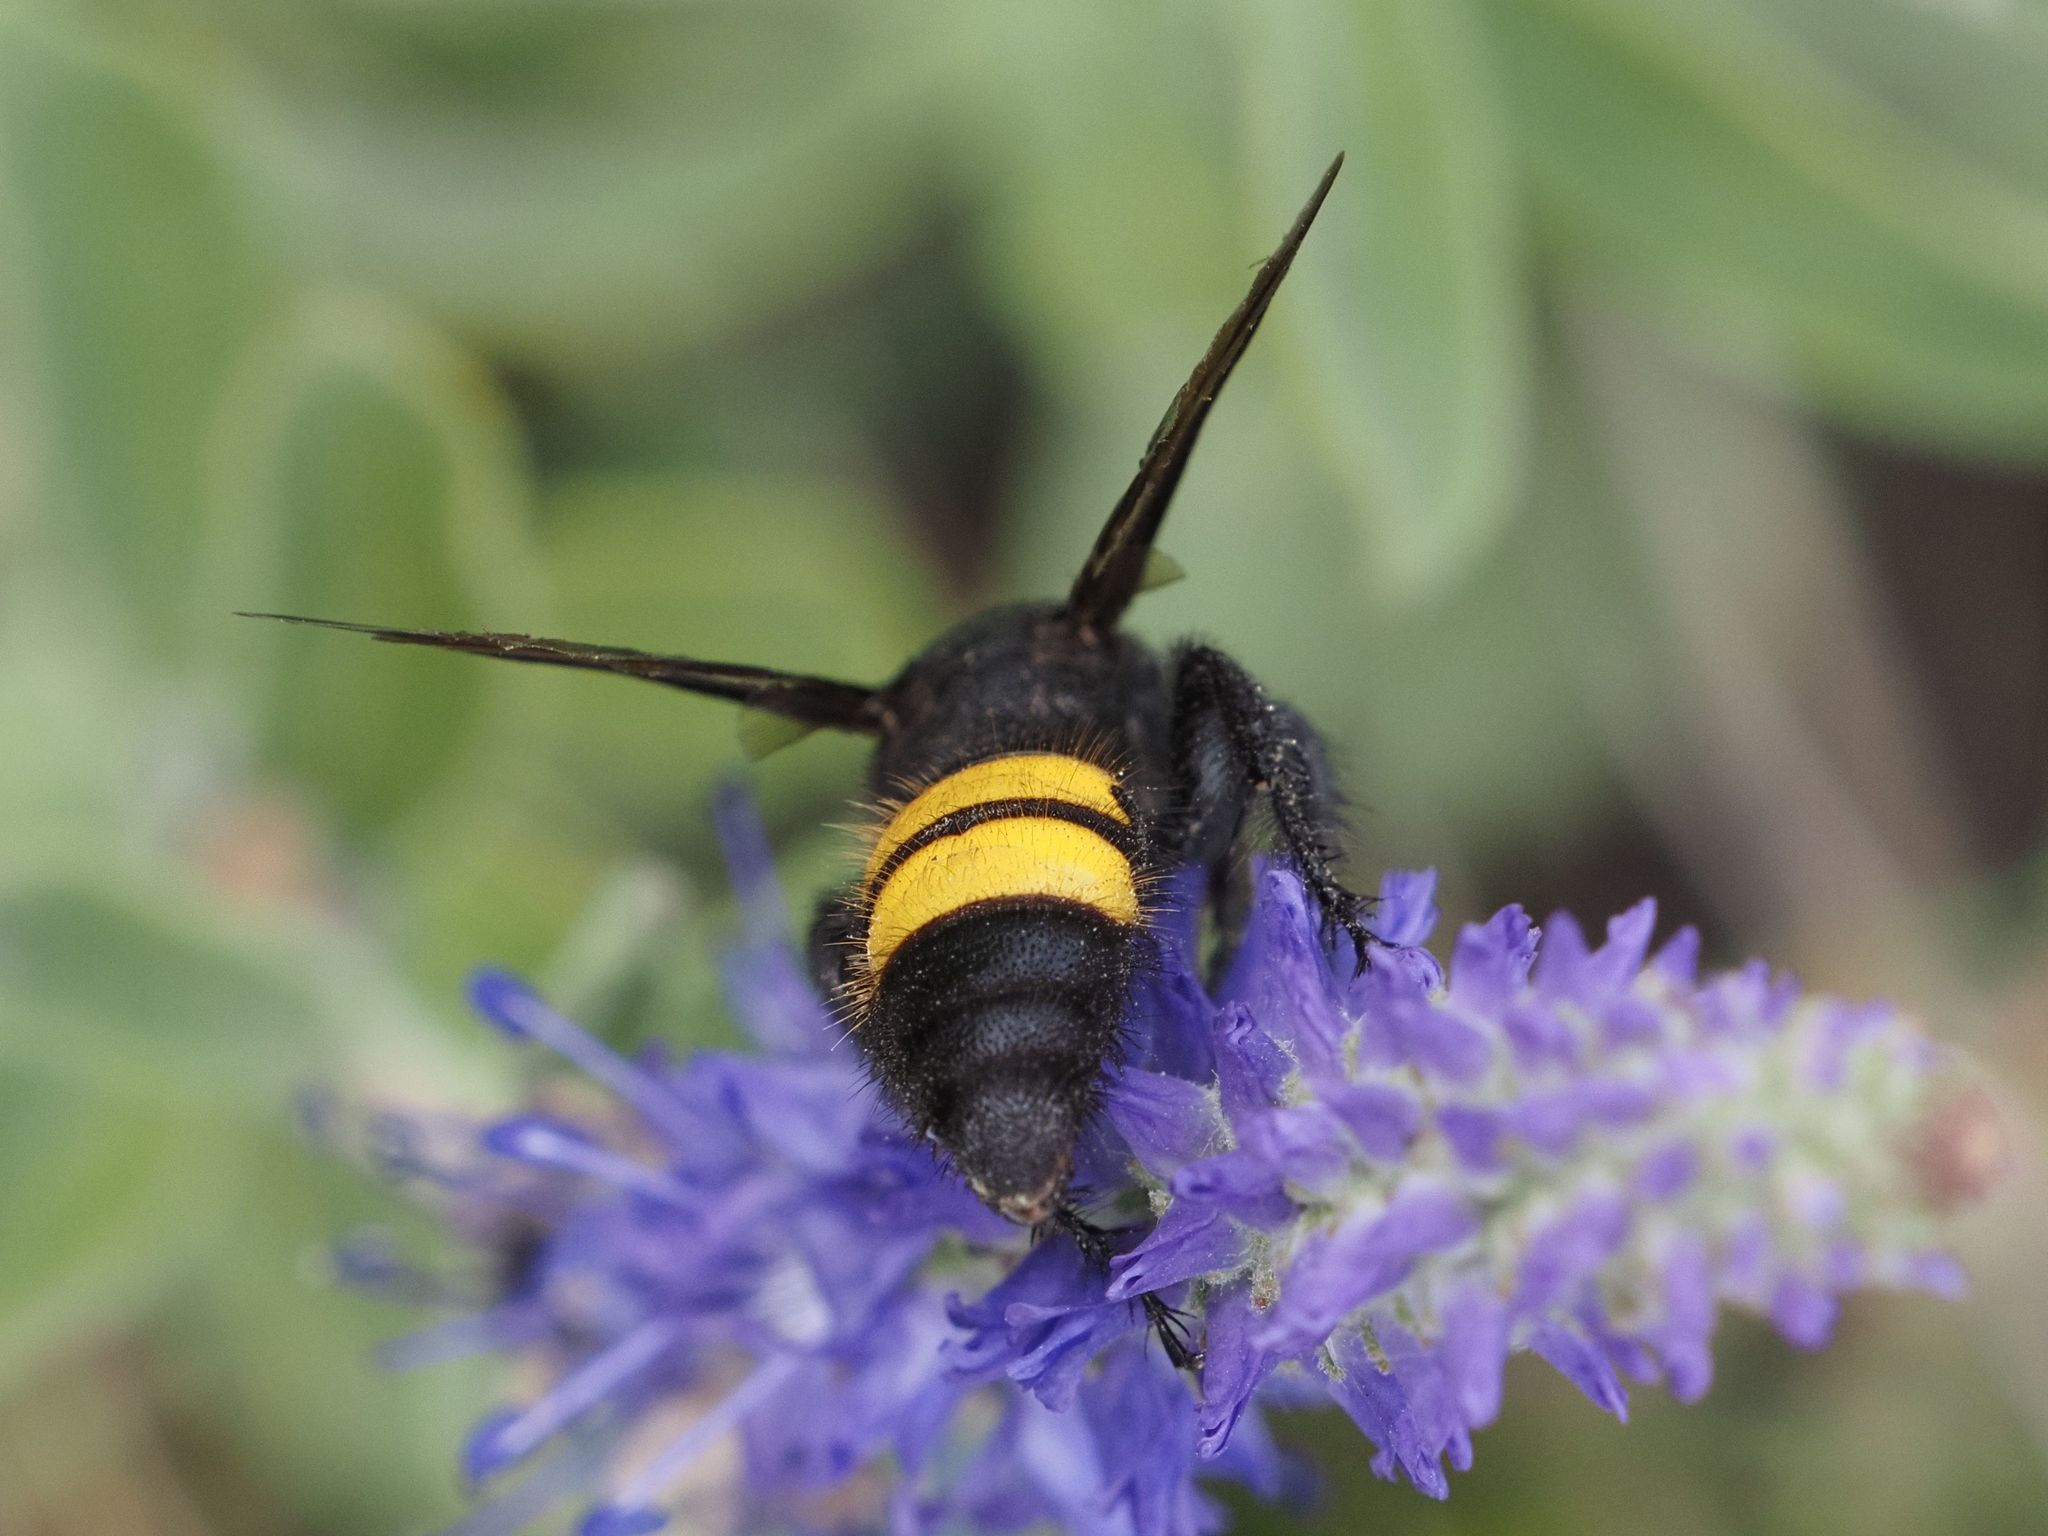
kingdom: Animalia
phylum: Arthropoda
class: Insecta
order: Hymenoptera
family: Scoliidae
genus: Scolia
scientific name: Scolia hirta
